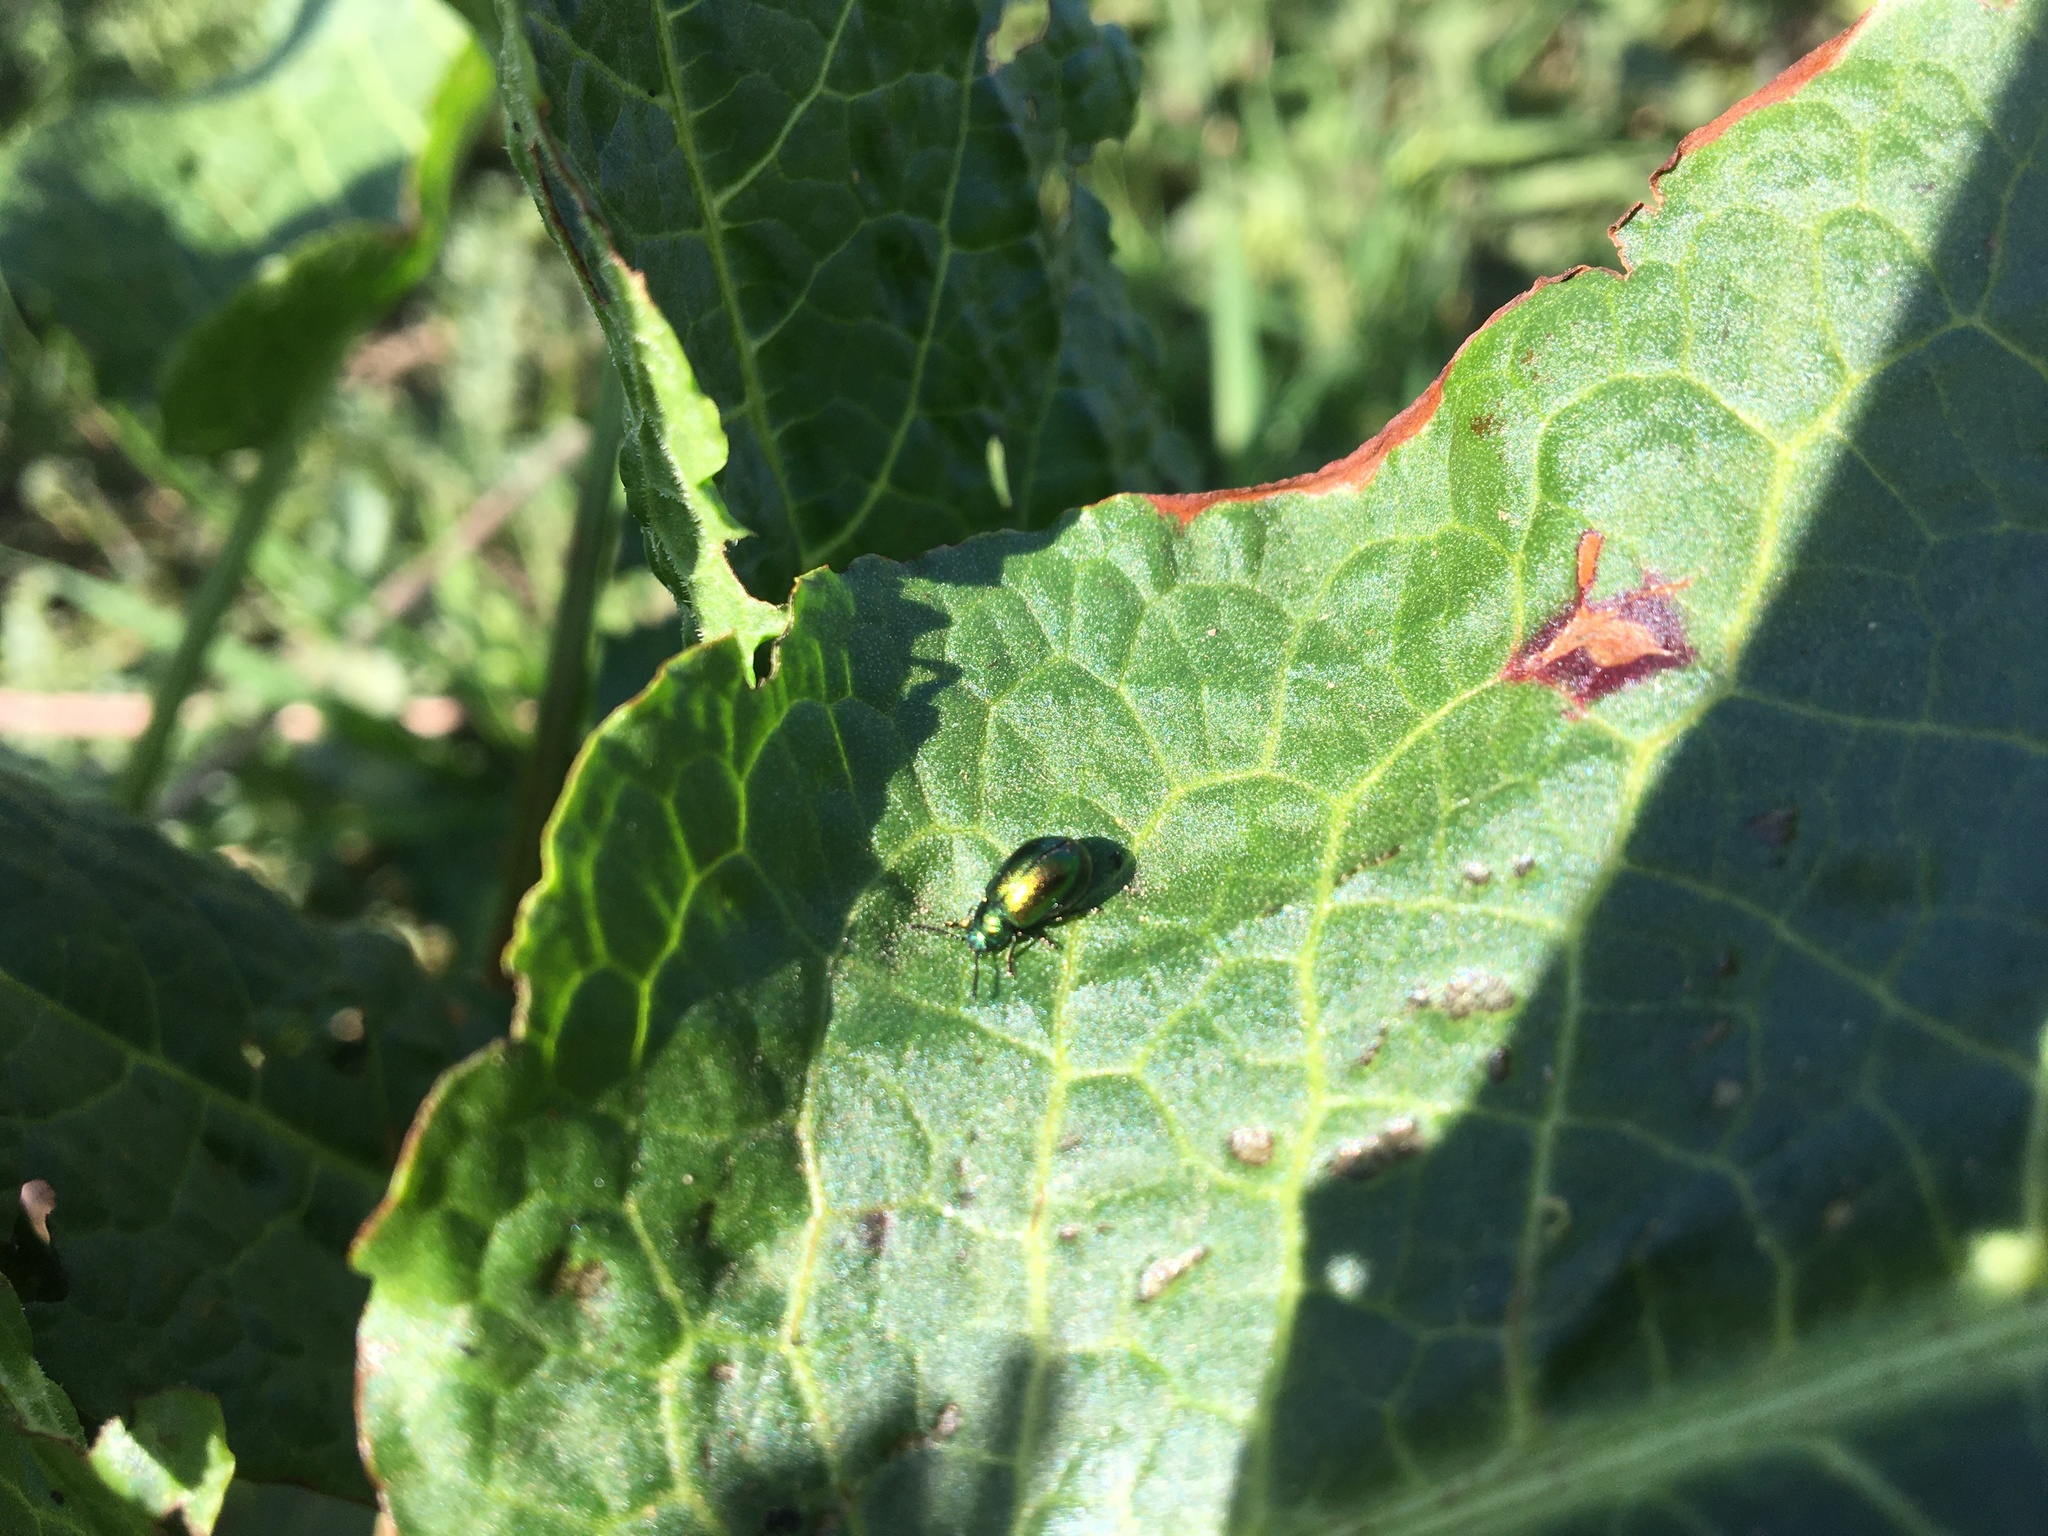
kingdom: Animalia
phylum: Arthropoda
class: Insecta
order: Coleoptera
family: Chrysomelidae
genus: Gastrophysa
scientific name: Gastrophysa viridula
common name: Green dock beetle
